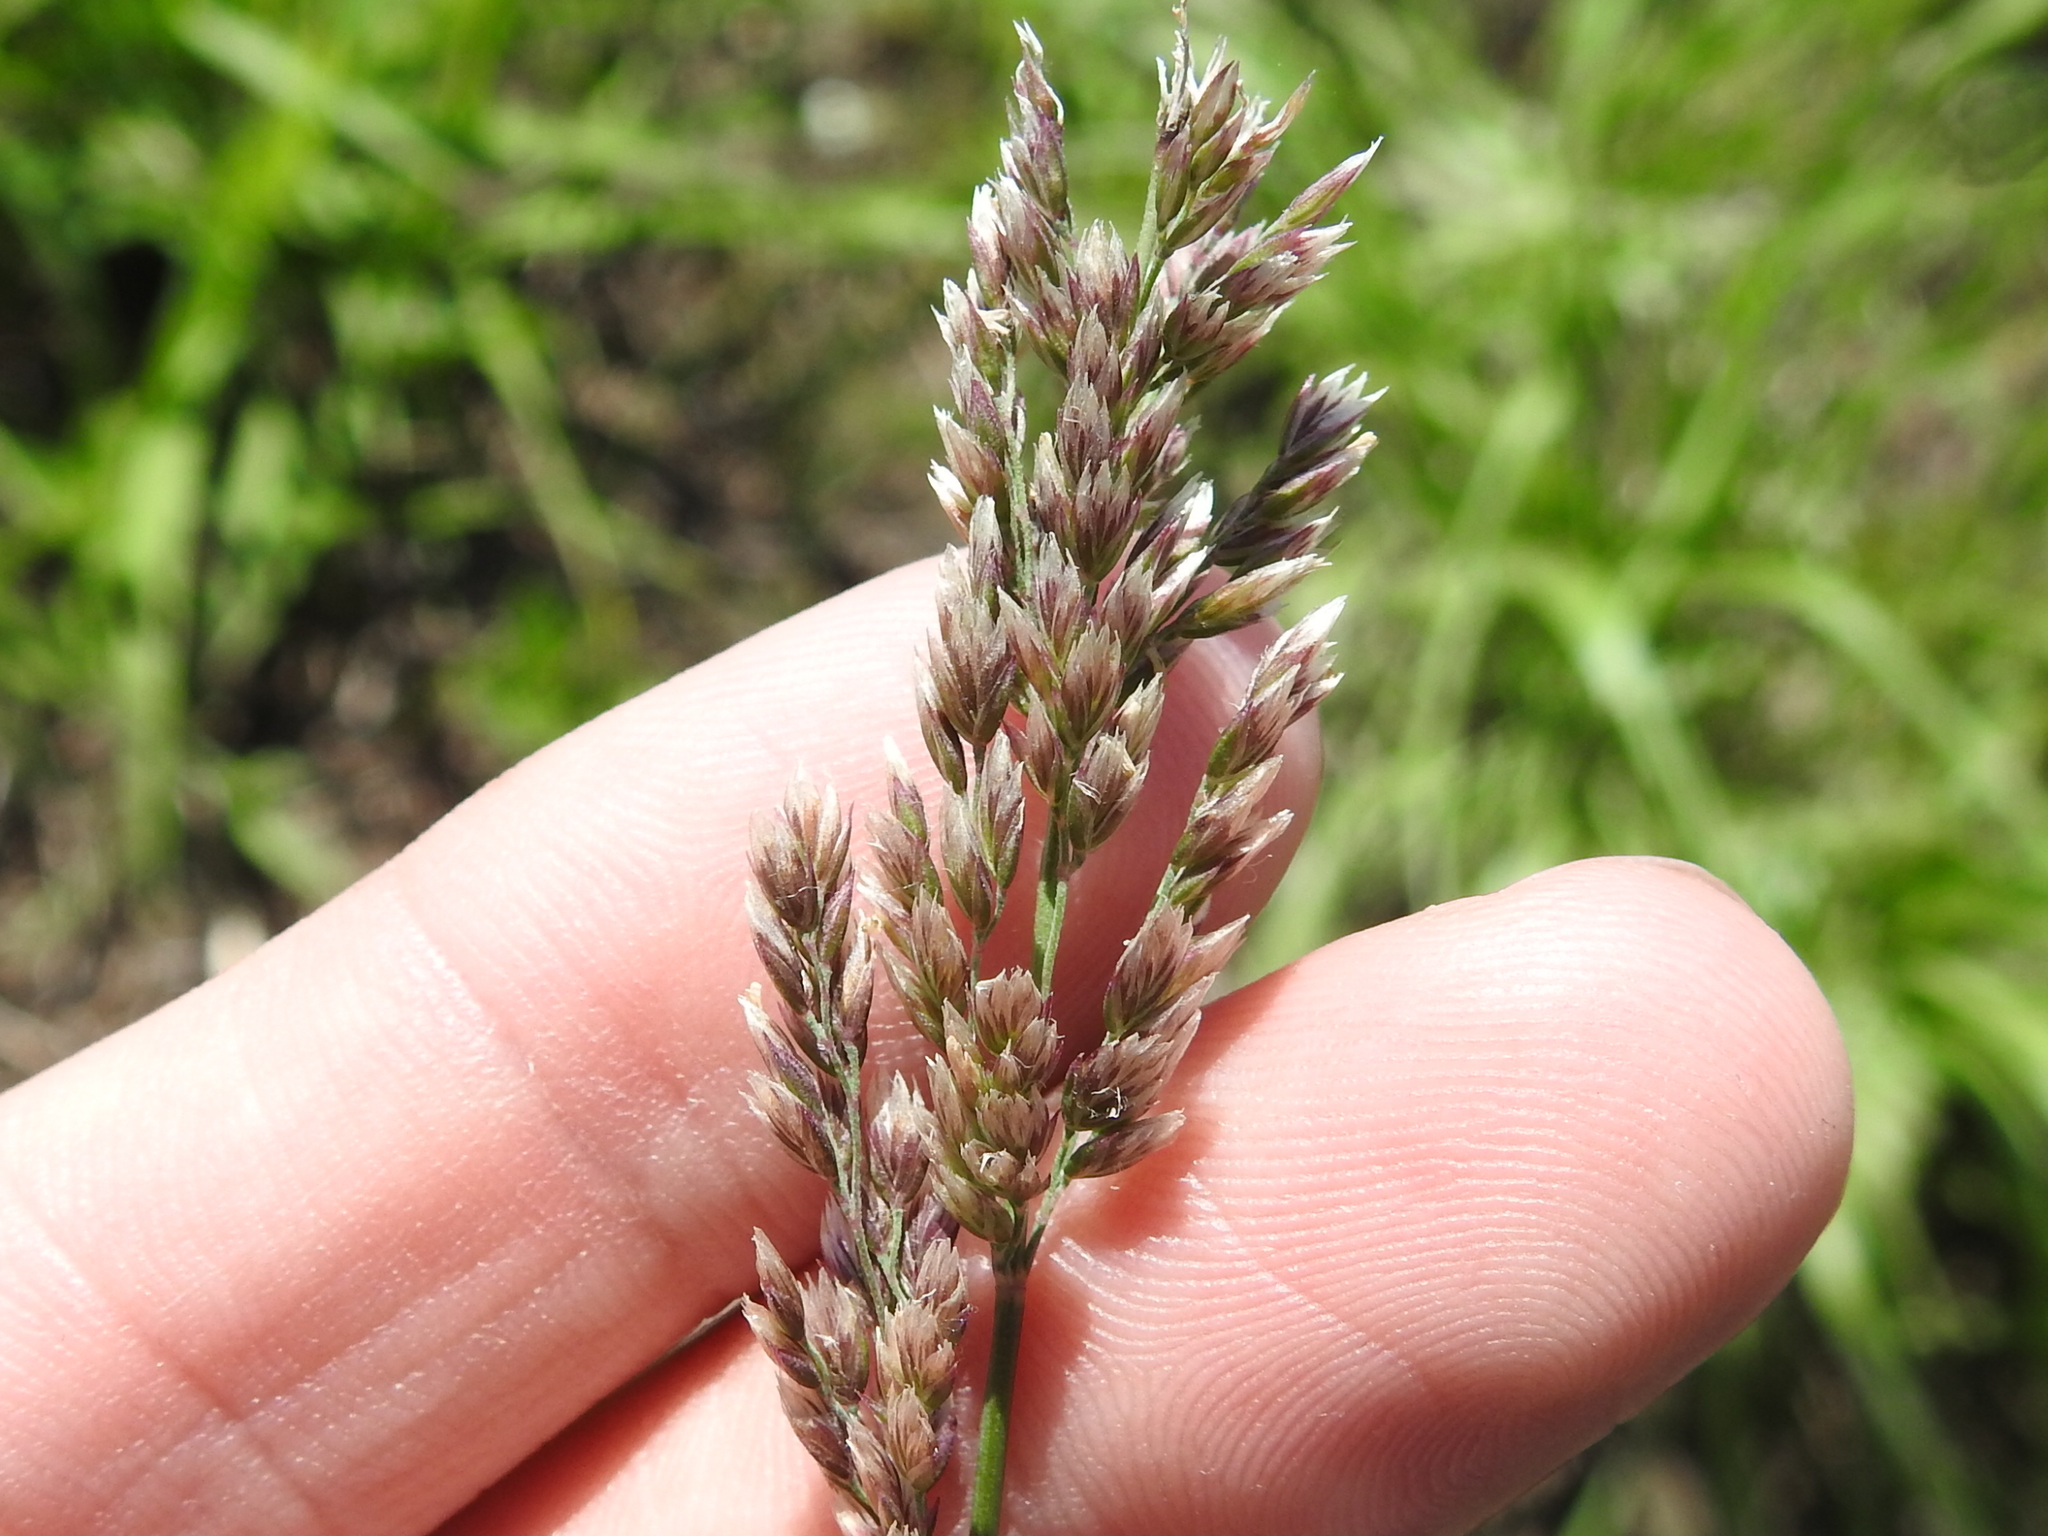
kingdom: Plantae
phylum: Tracheophyta
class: Liliopsida
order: Poales
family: Poaceae
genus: Poa
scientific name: Poa arachnifera
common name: Texas bluegrass
